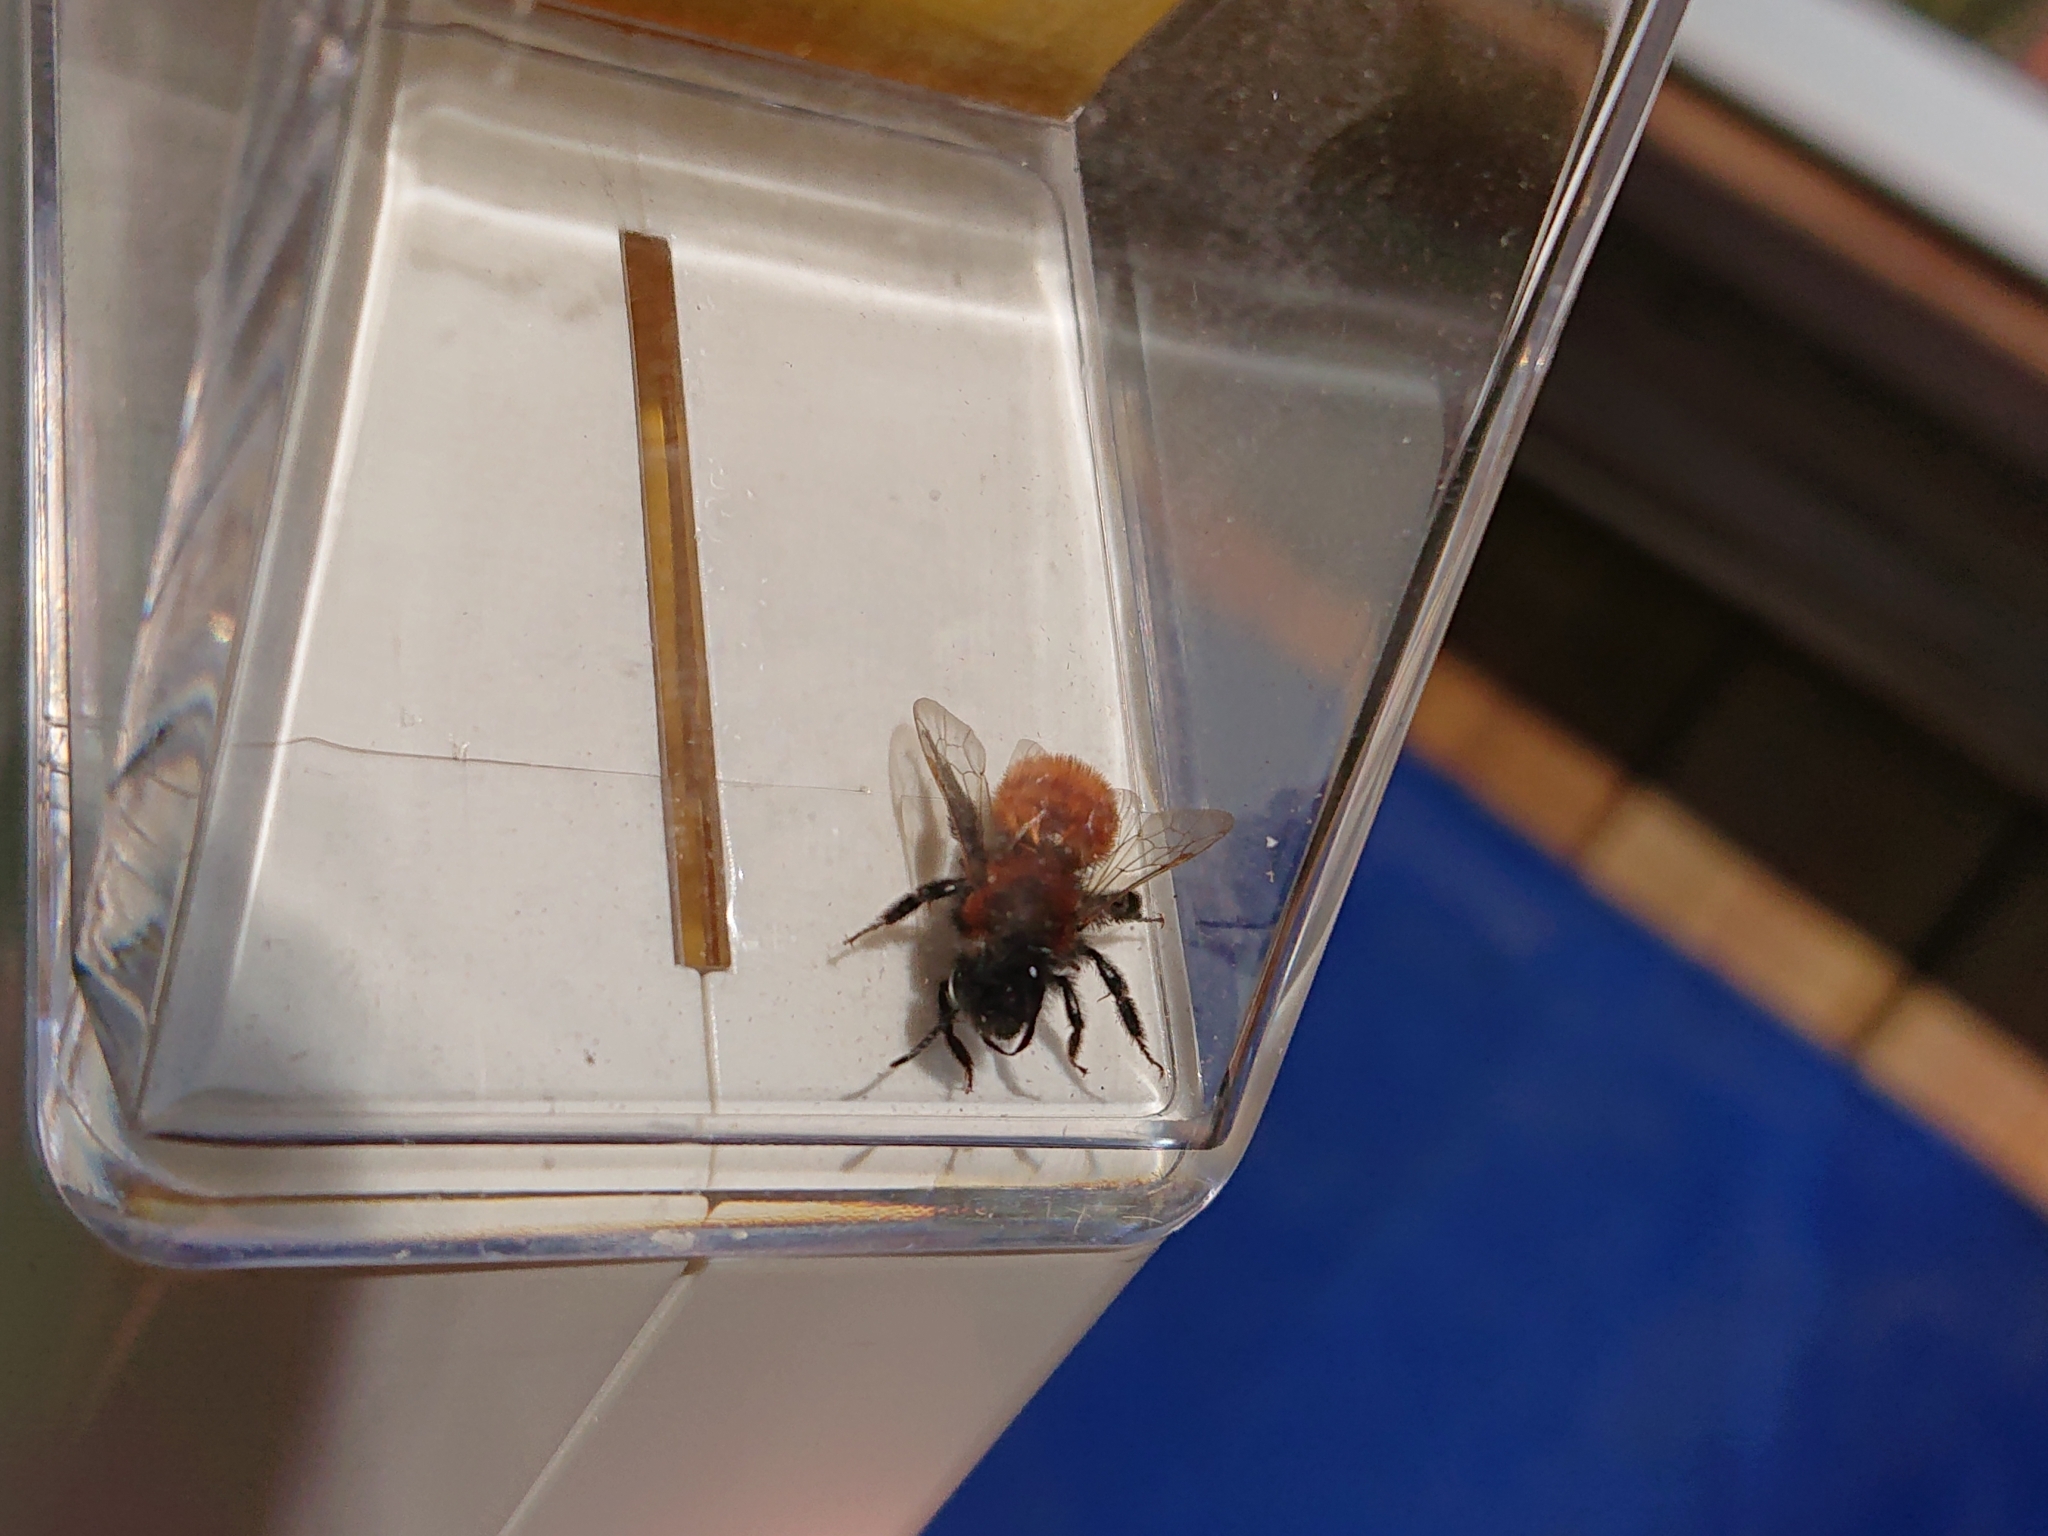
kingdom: Animalia
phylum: Arthropoda
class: Insecta
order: Hymenoptera
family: Andrenidae
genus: Andrena
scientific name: Andrena fulva
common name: Tawny mining bee
